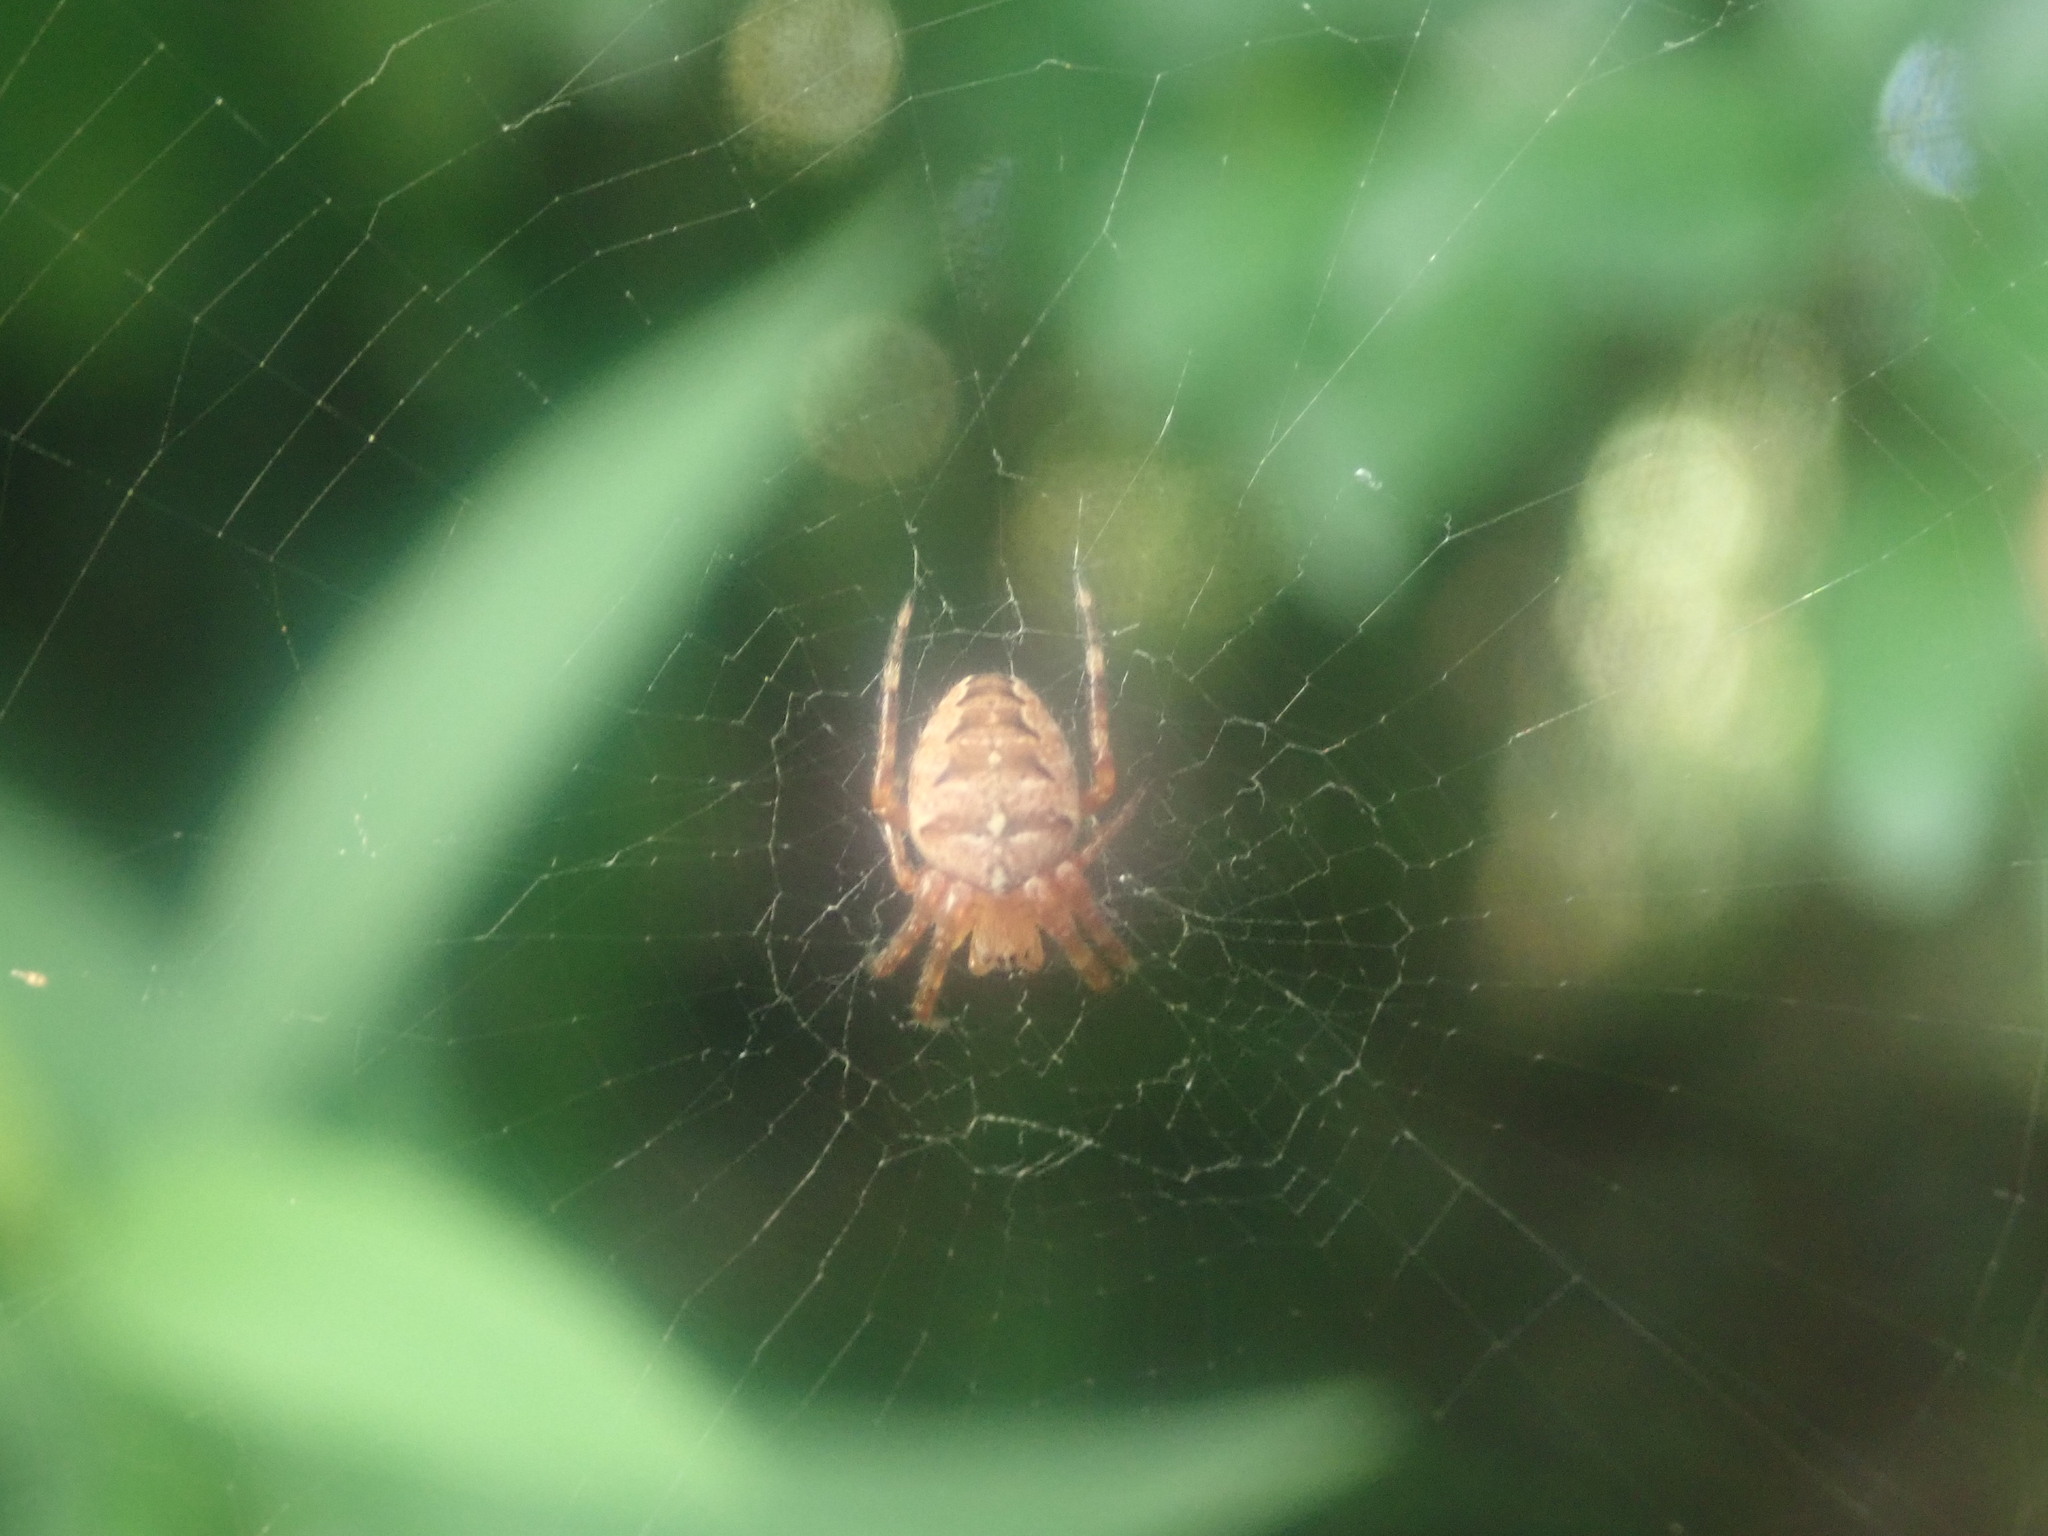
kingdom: Animalia
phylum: Arthropoda
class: Arachnida
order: Araneae
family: Araneidae
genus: Araneus
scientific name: Araneus diadematus
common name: Cross orbweaver
